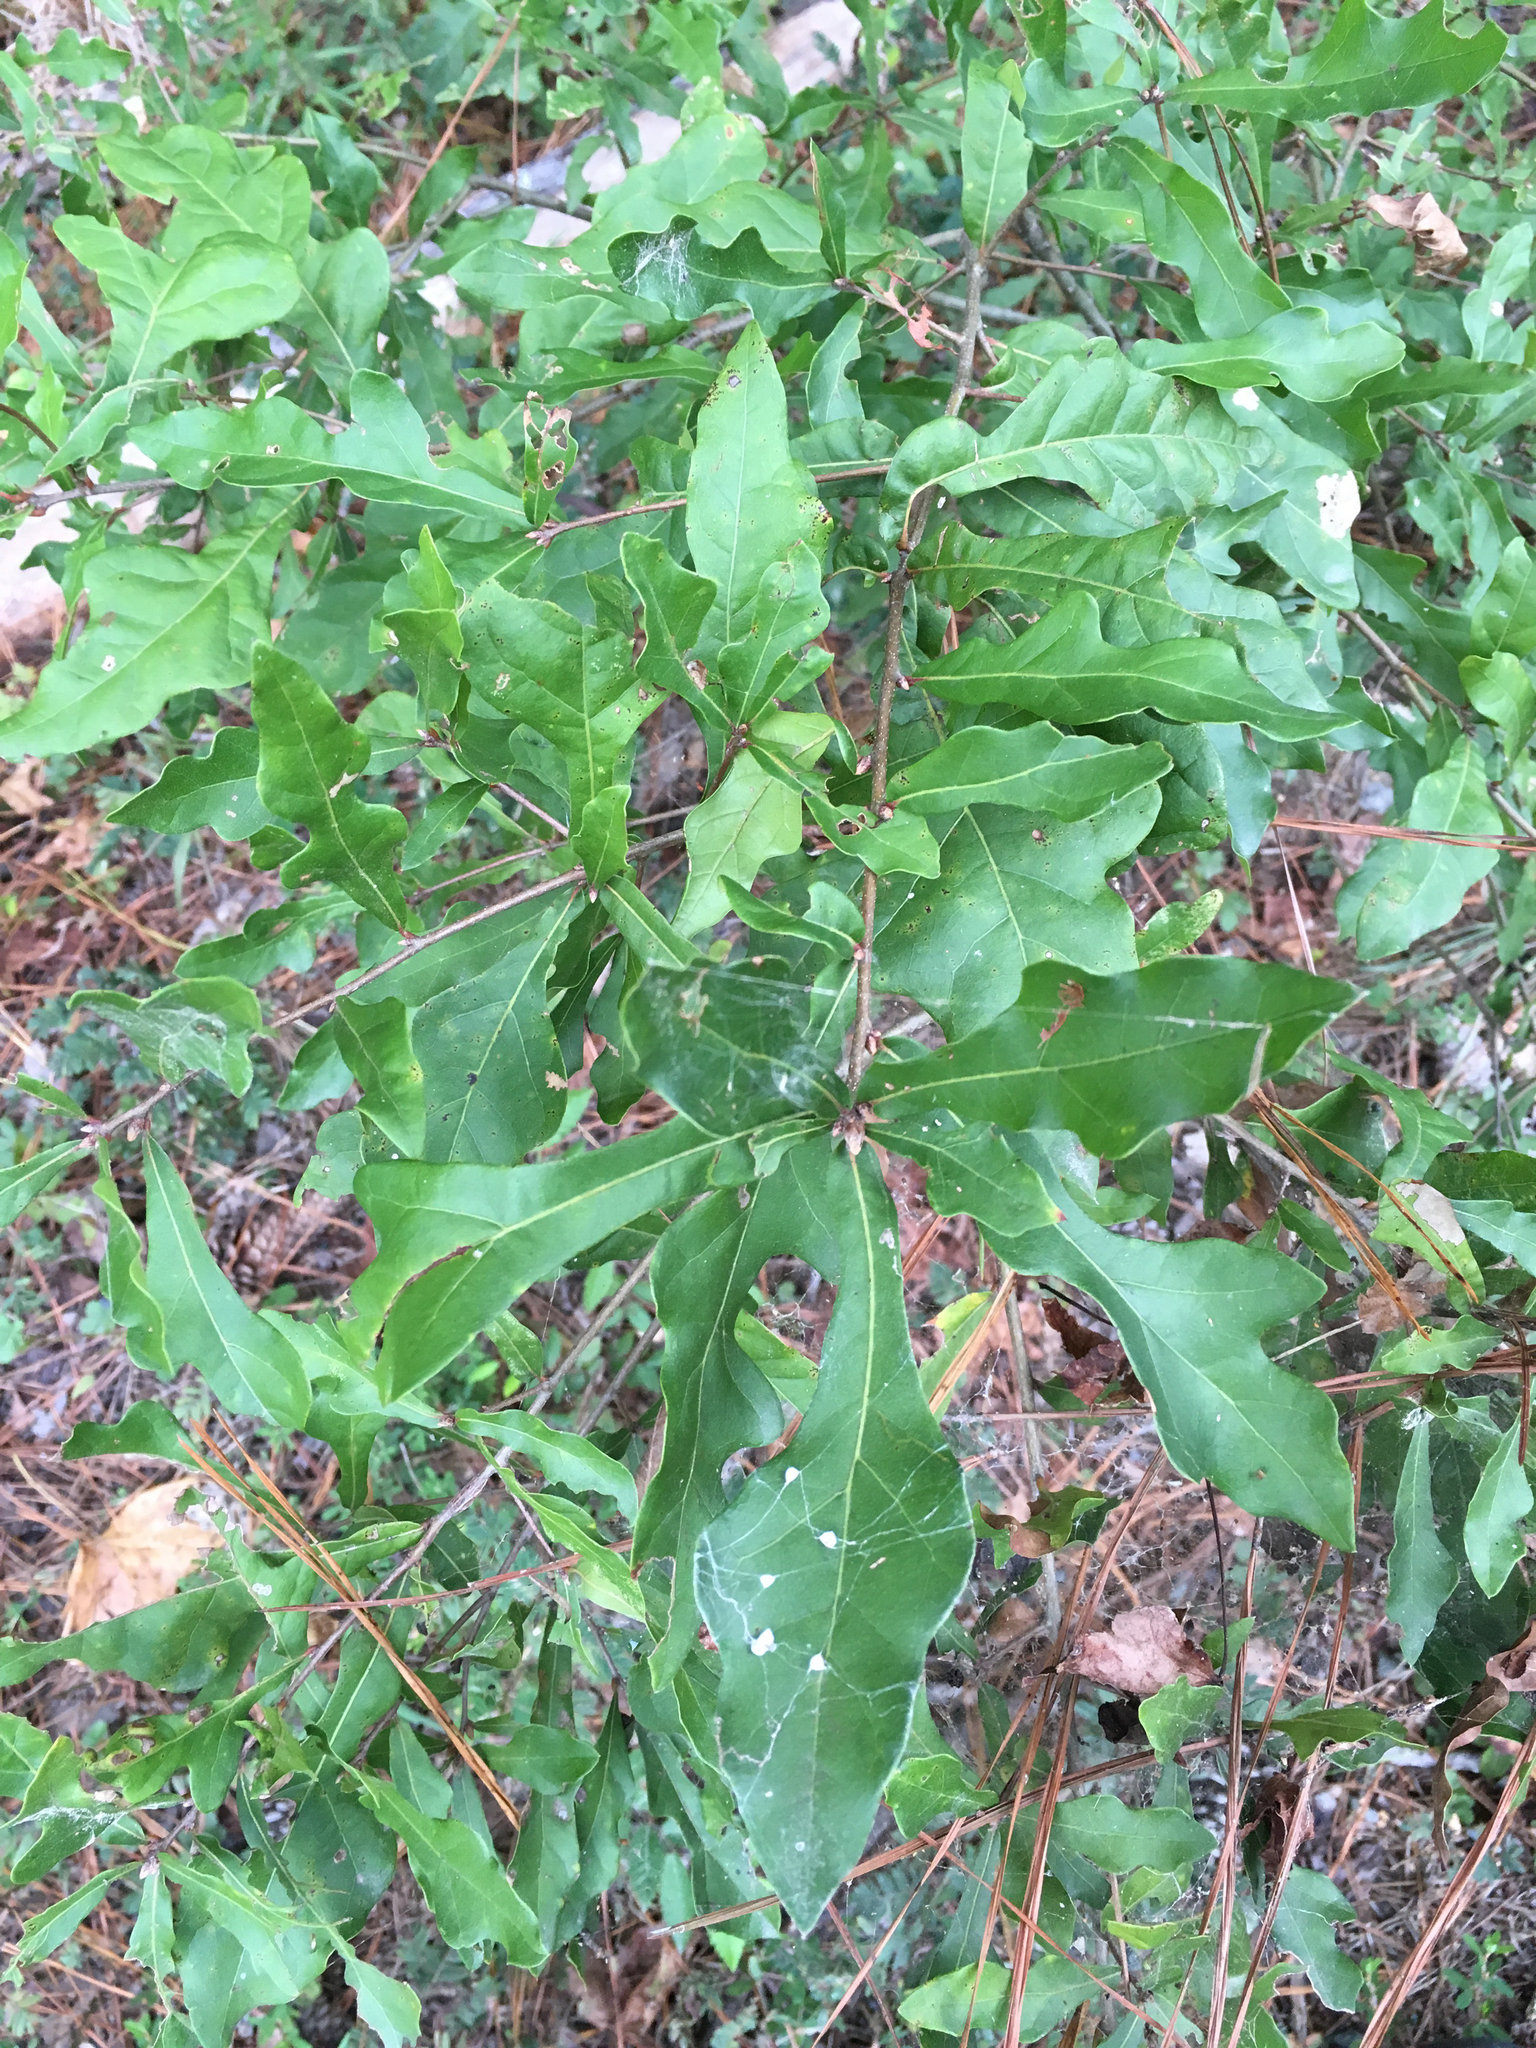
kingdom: Plantae
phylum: Tracheophyta
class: Magnoliopsida
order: Fagales
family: Fagaceae
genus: Quercus
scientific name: Quercus nigra
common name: Water oak
